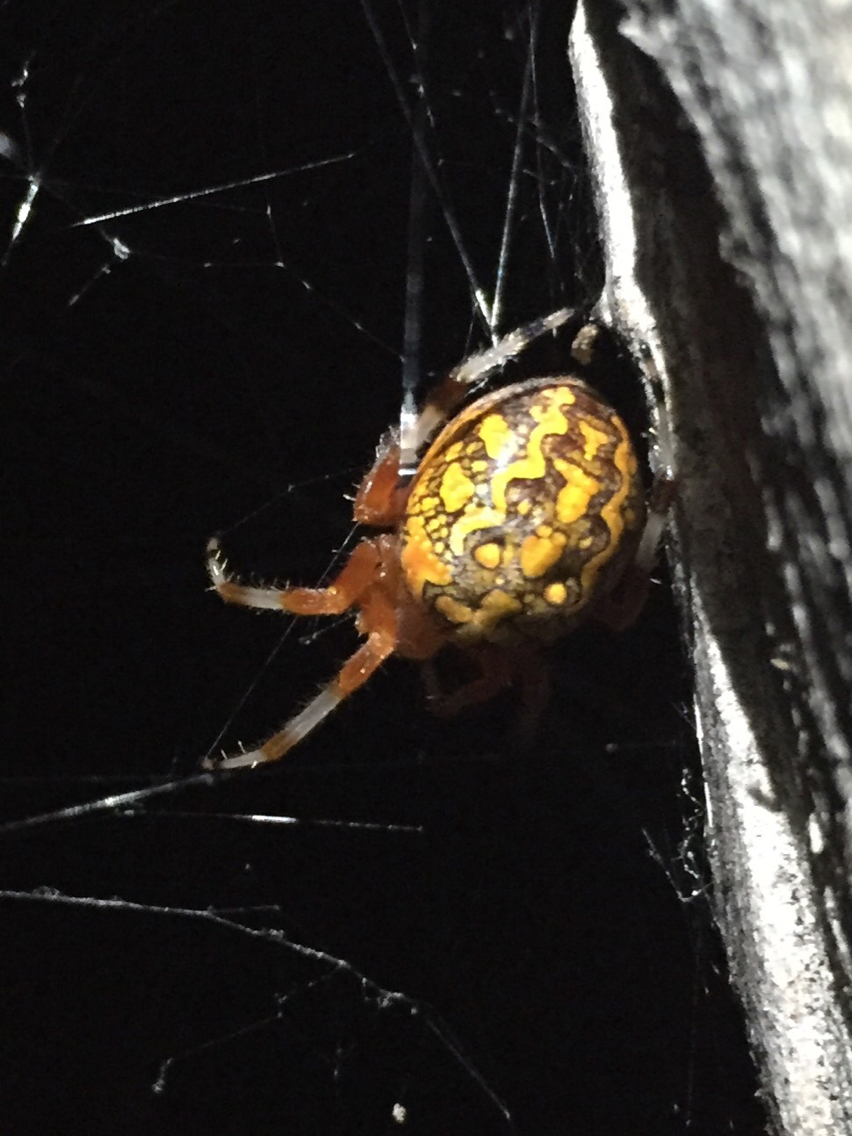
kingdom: Animalia
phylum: Arthropoda
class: Arachnida
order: Araneae
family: Araneidae
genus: Araneus
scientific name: Araneus marmoreus
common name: Marbled orbweaver
